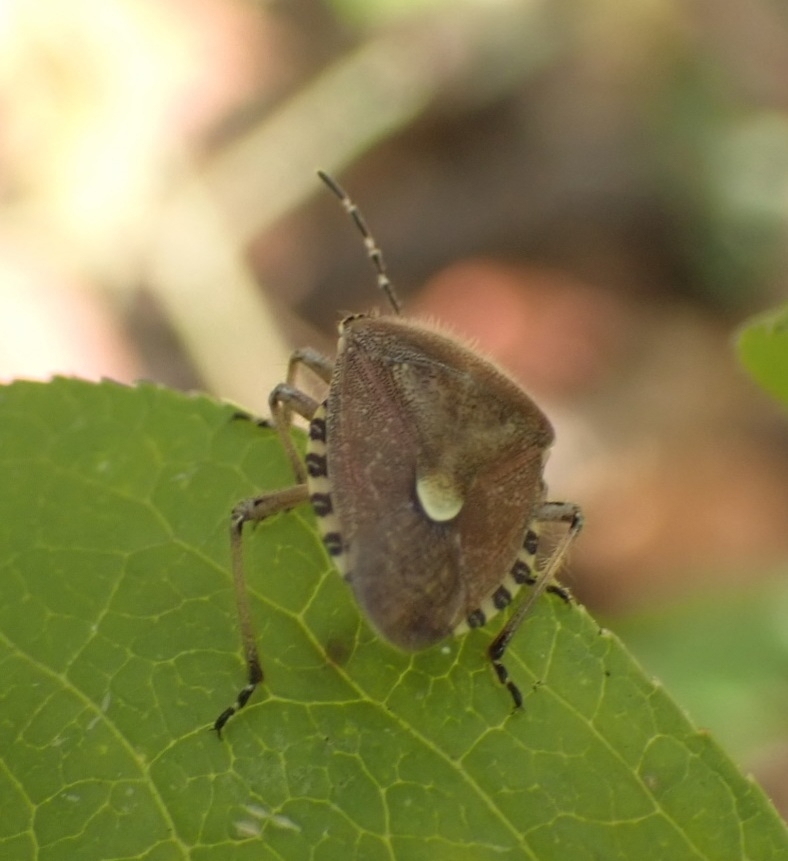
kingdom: Animalia
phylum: Arthropoda
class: Insecta
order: Hemiptera
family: Pentatomidae
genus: Dolycoris
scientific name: Dolycoris baccarum
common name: Sloe bug
